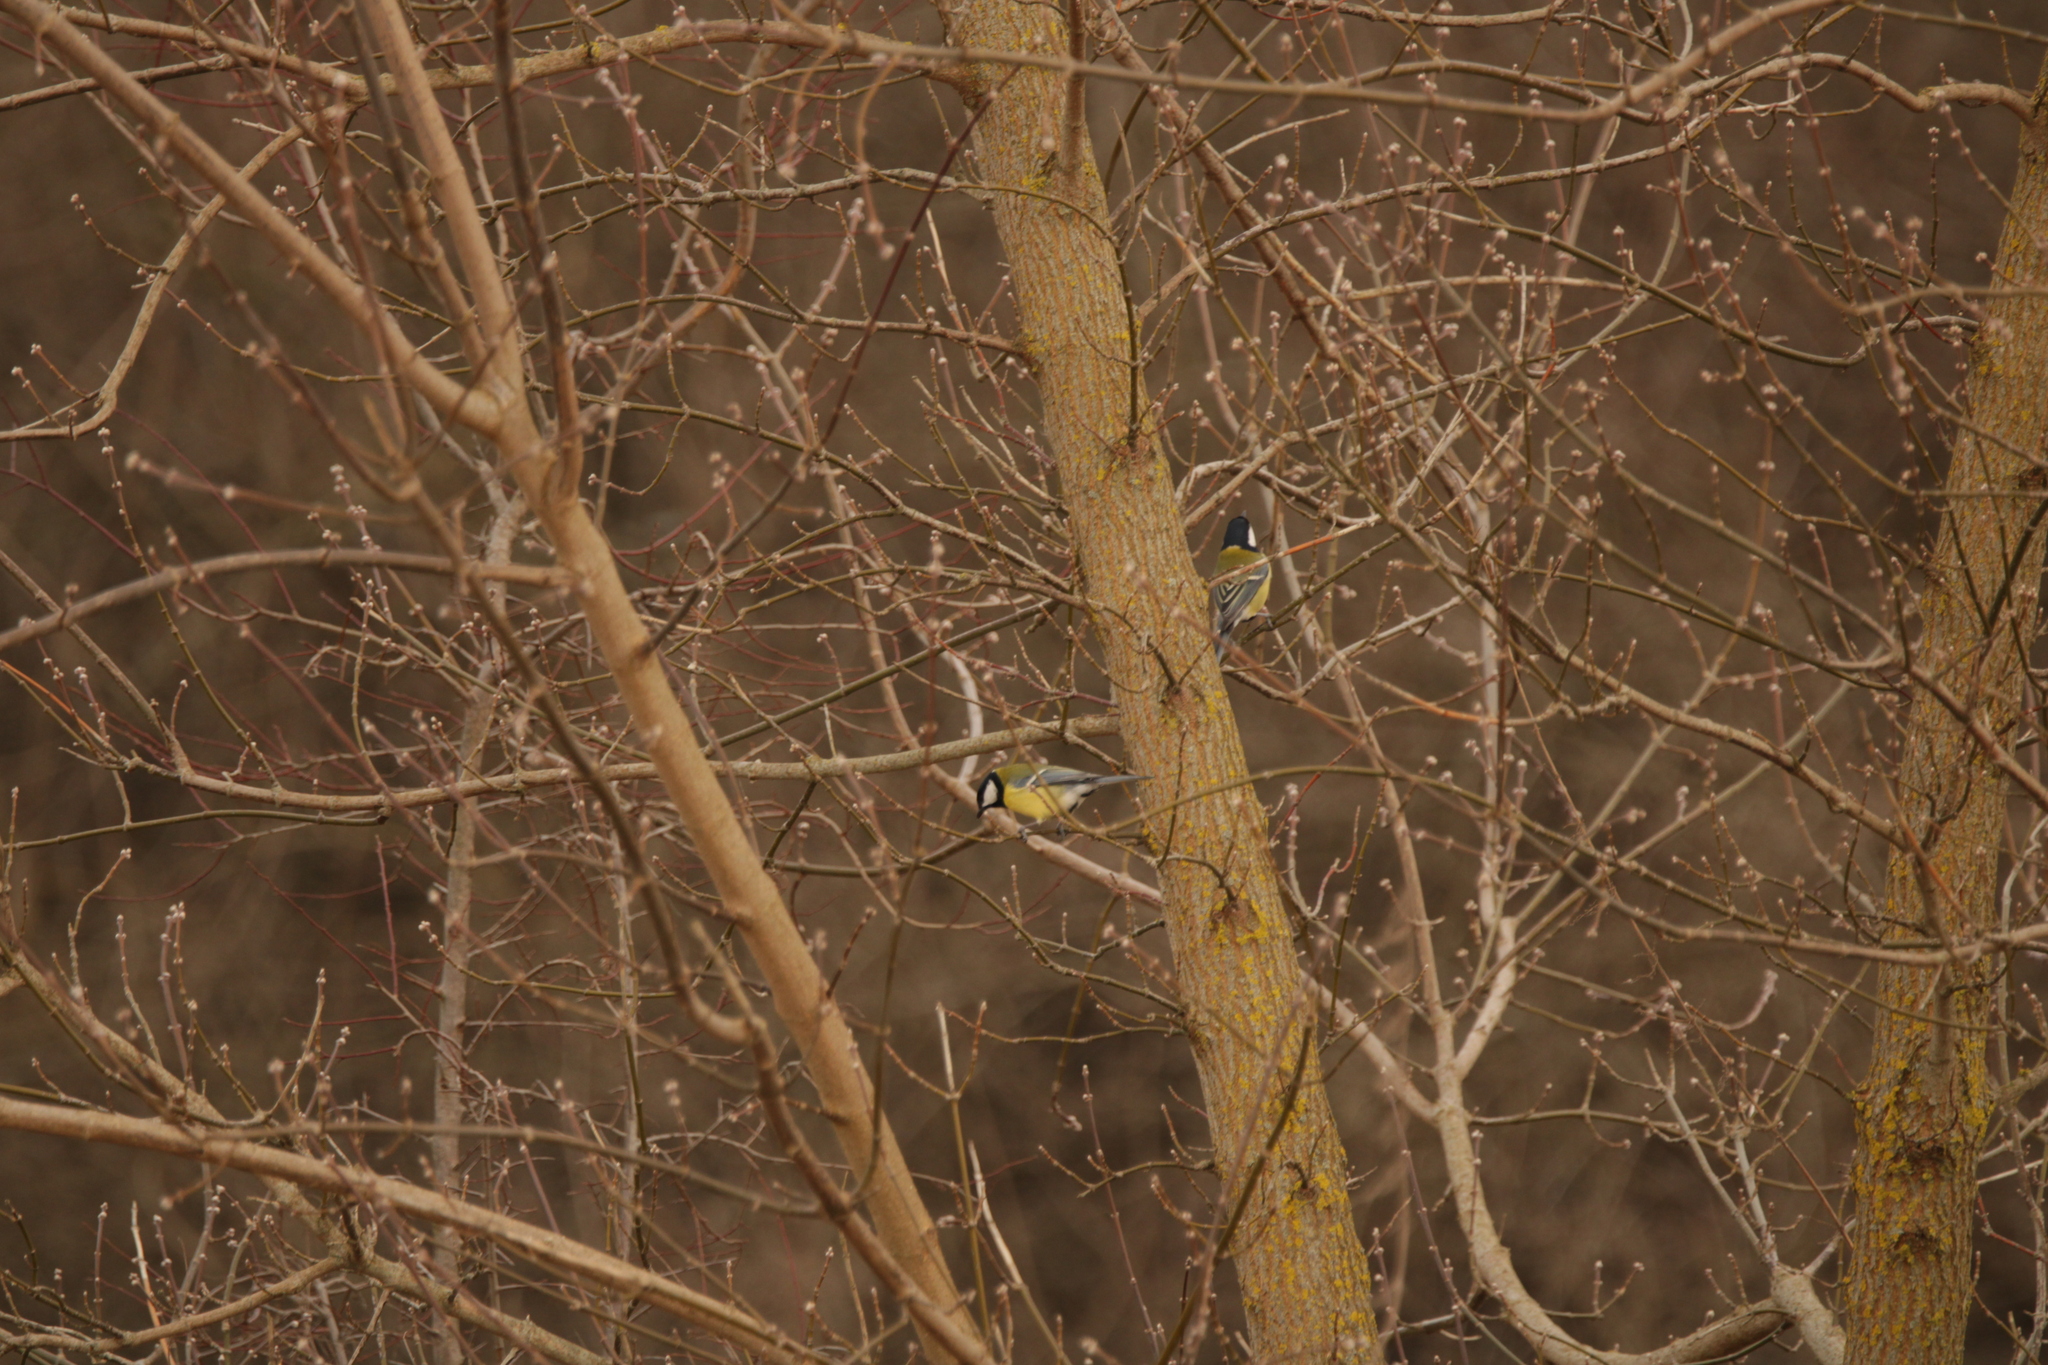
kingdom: Animalia
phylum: Chordata
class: Aves
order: Passeriformes
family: Paridae
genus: Parus
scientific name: Parus major
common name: Great tit
